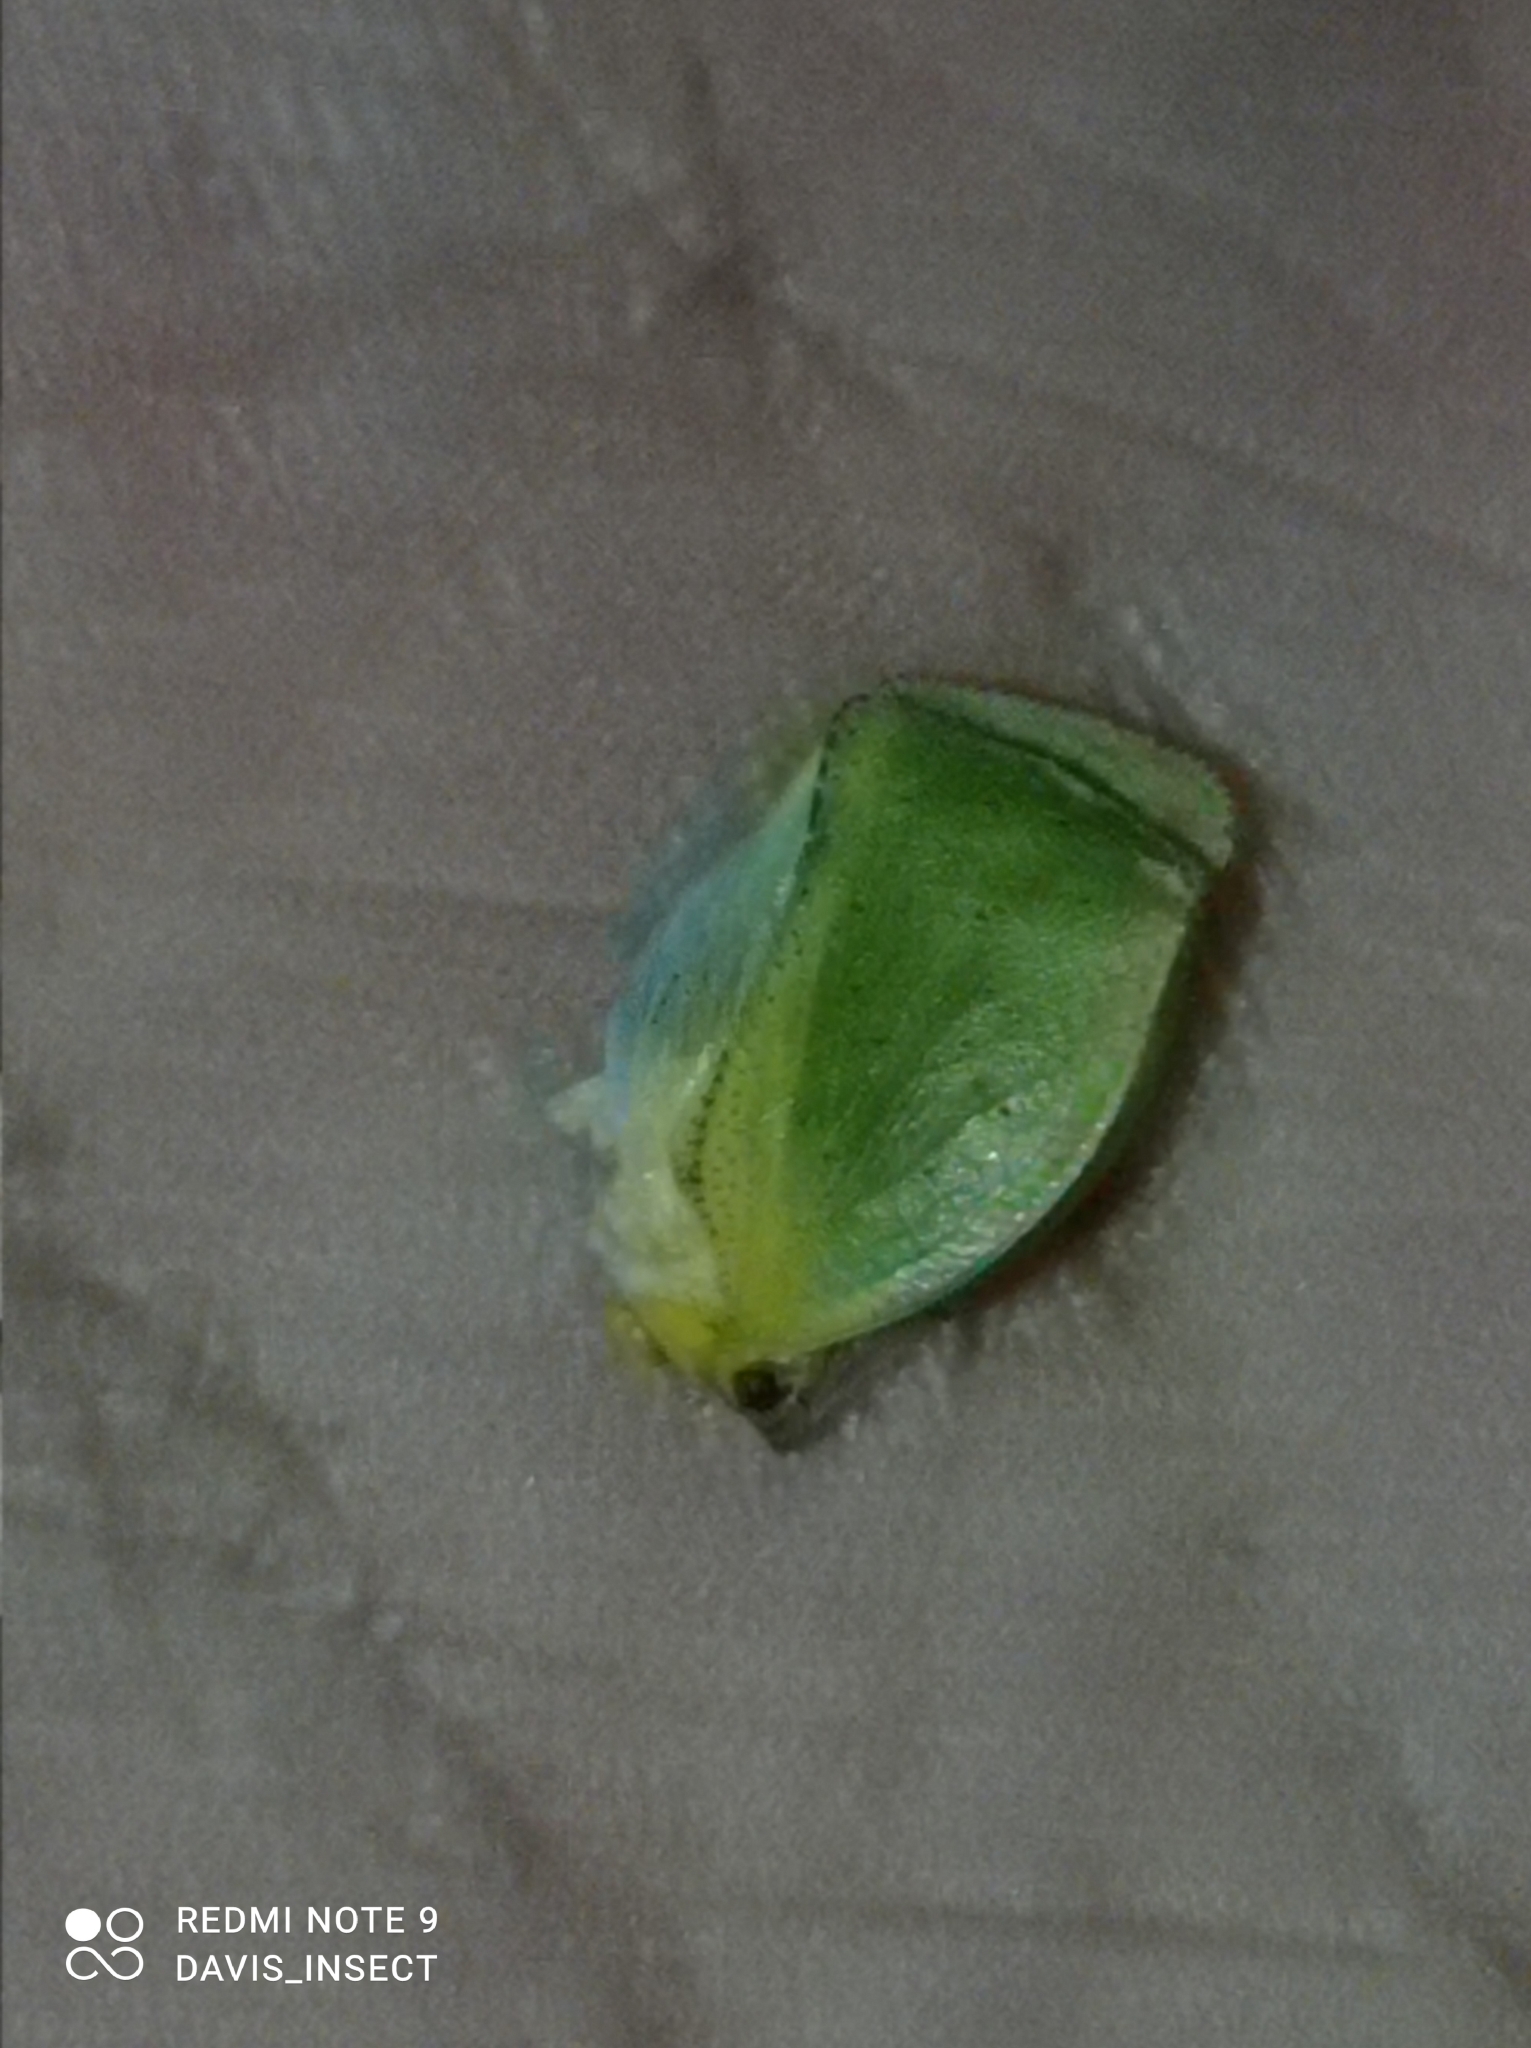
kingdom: Animalia
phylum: Arthropoda
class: Insecta
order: Hemiptera
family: Flatidae
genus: Siphanta
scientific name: Siphanta patruelis
